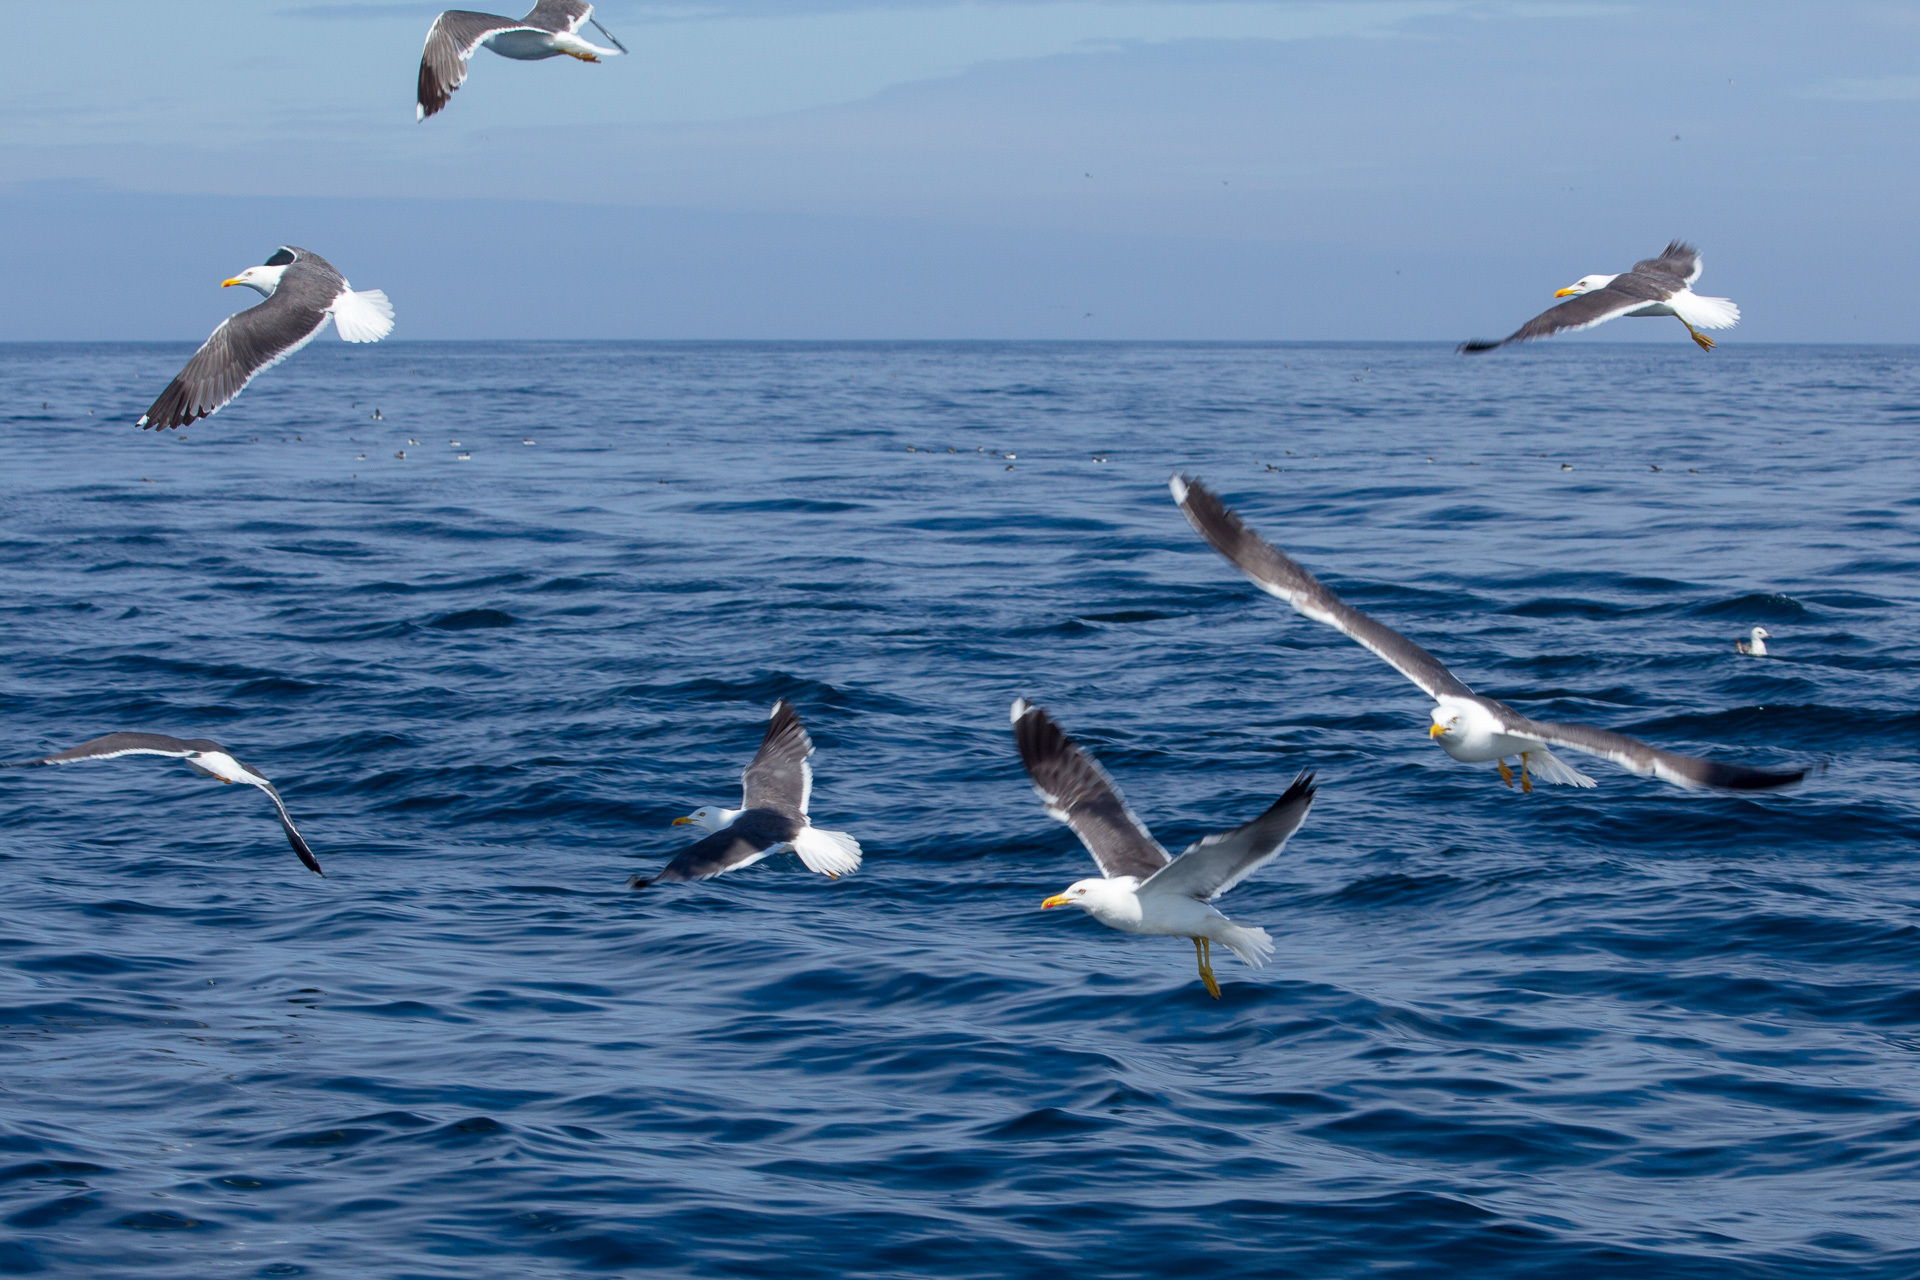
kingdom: Animalia
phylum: Chordata
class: Aves
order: Charadriiformes
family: Laridae
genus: Larus
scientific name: Larus fuscus
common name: Lesser black-backed gull
